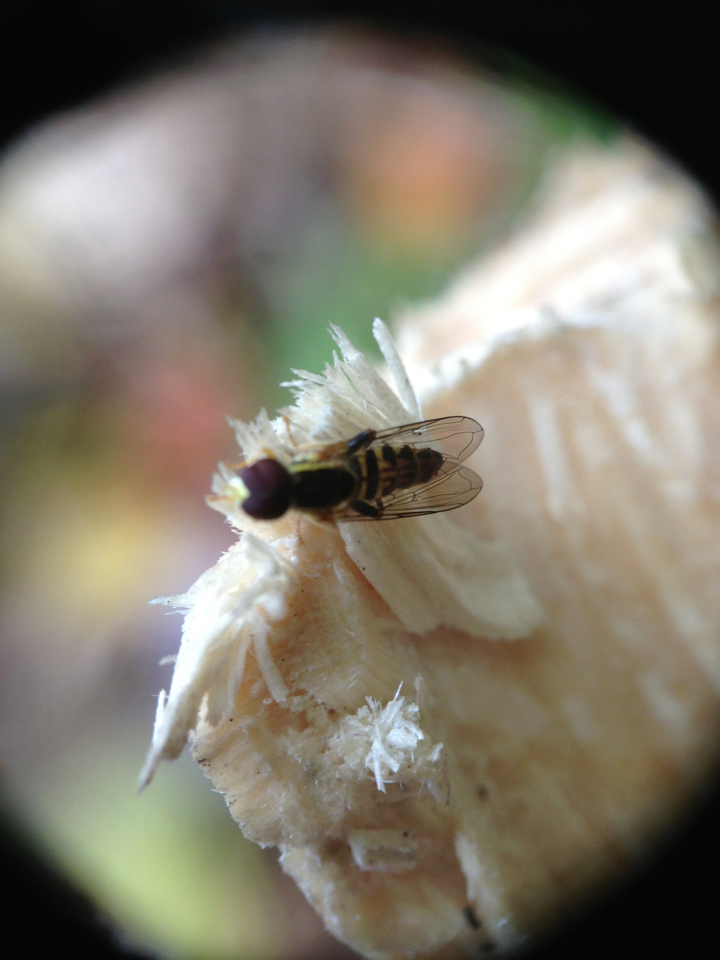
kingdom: Animalia
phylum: Arthropoda
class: Insecta
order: Diptera
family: Syrphidae
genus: Toxomerus
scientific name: Toxomerus geminatus
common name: Eastern calligrapher
